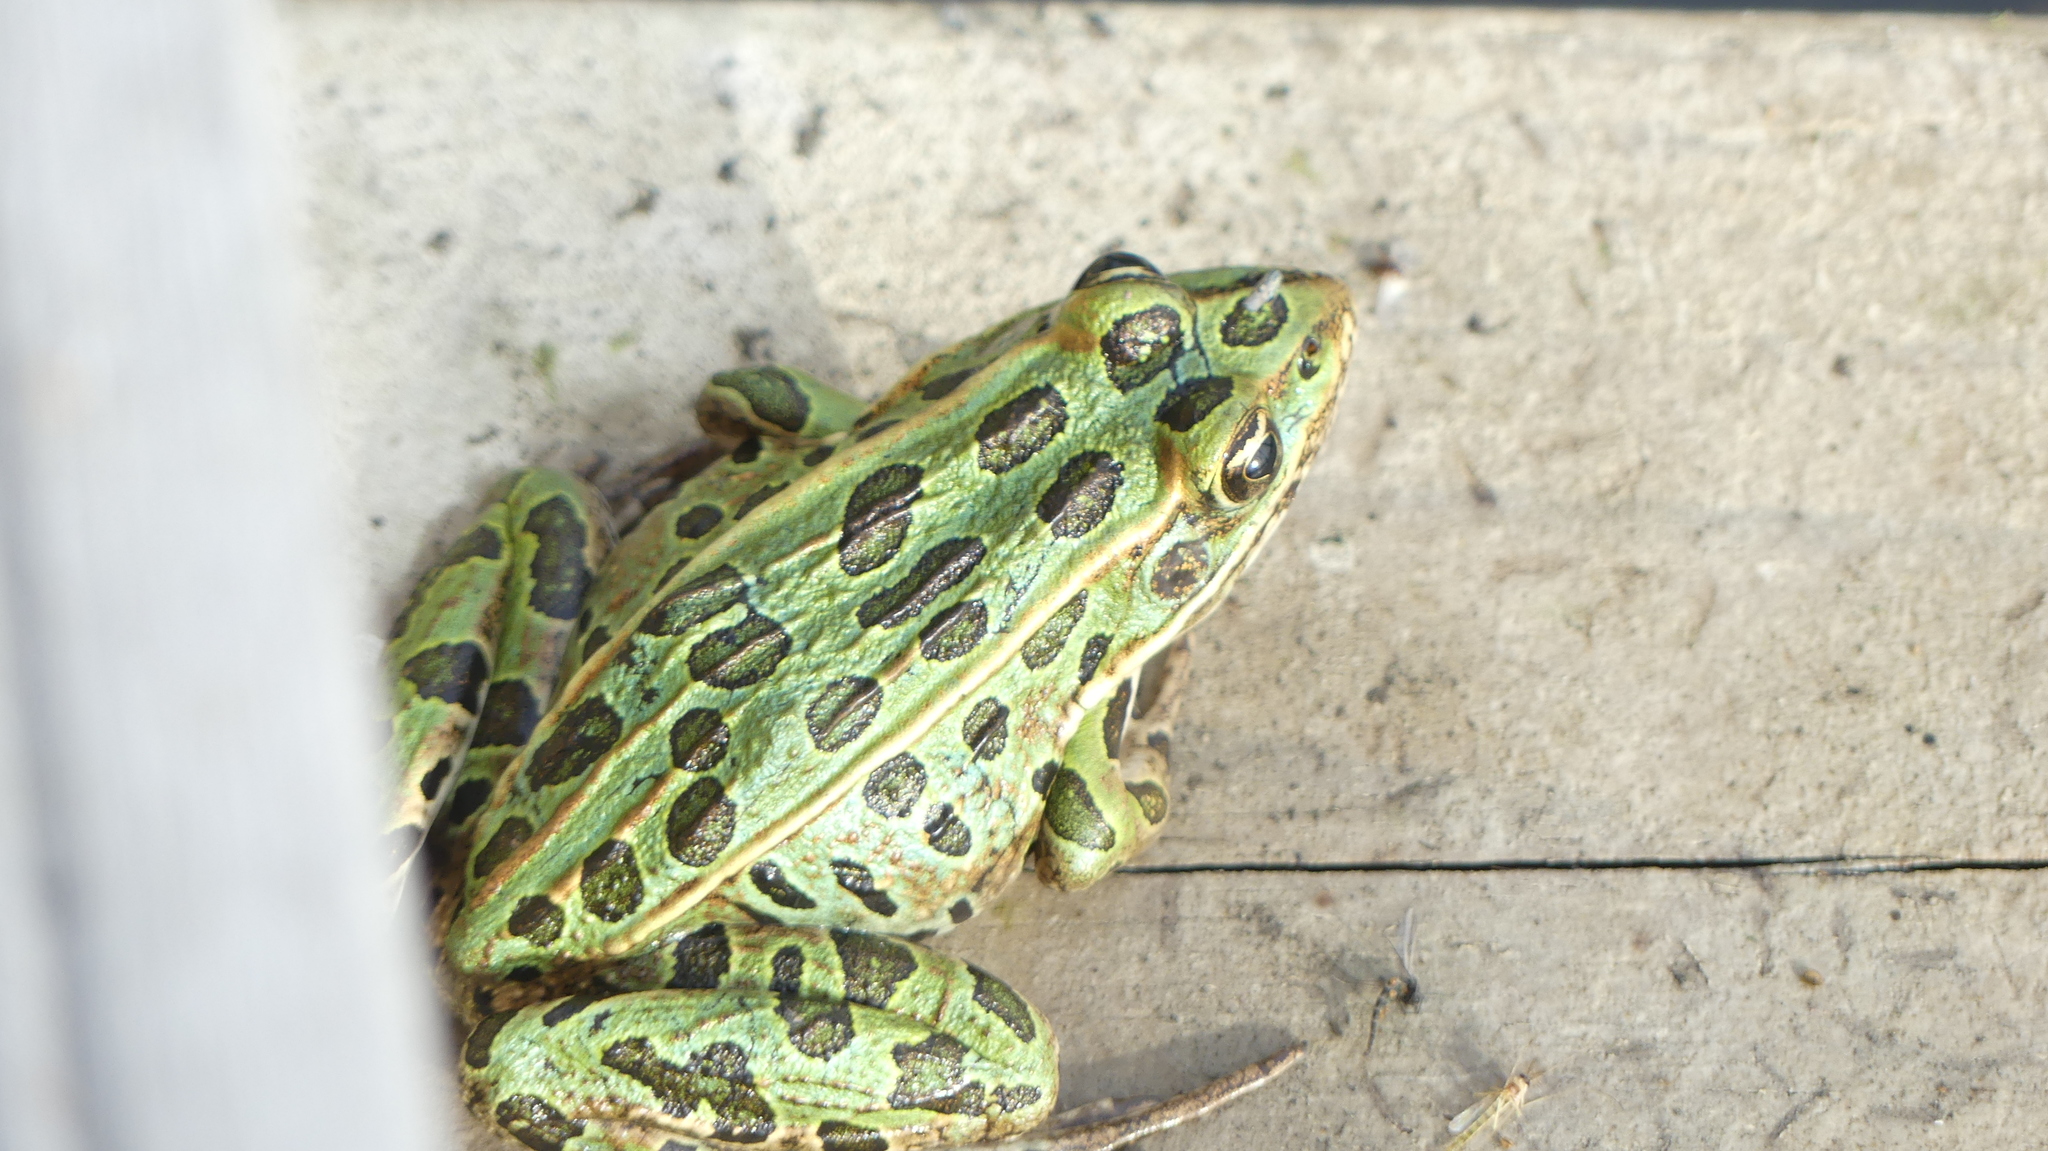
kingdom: Animalia
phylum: Chordata
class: Amphibia
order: Anura
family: Ranidae
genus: Lithobates
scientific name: Lithobates pipiens
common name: Northern leopard frog
